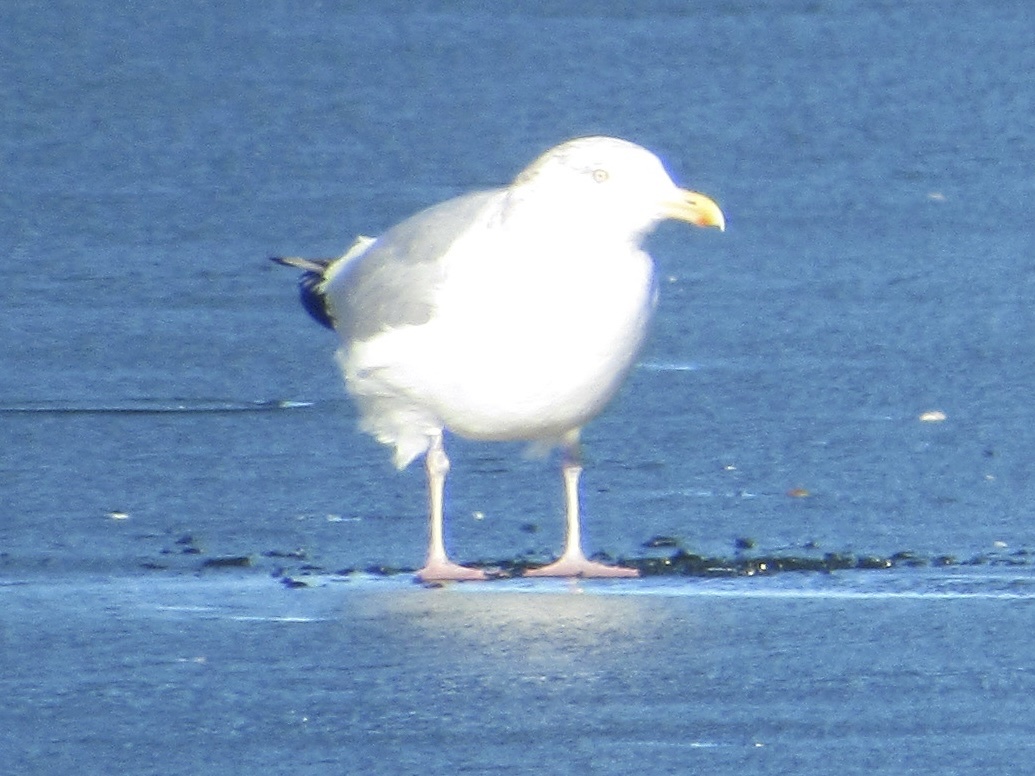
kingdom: Animalia
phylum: Chordata
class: Aves
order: Charadriiformes
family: Laridae
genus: Larus
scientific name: Larus argentatus
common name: Herring gull
